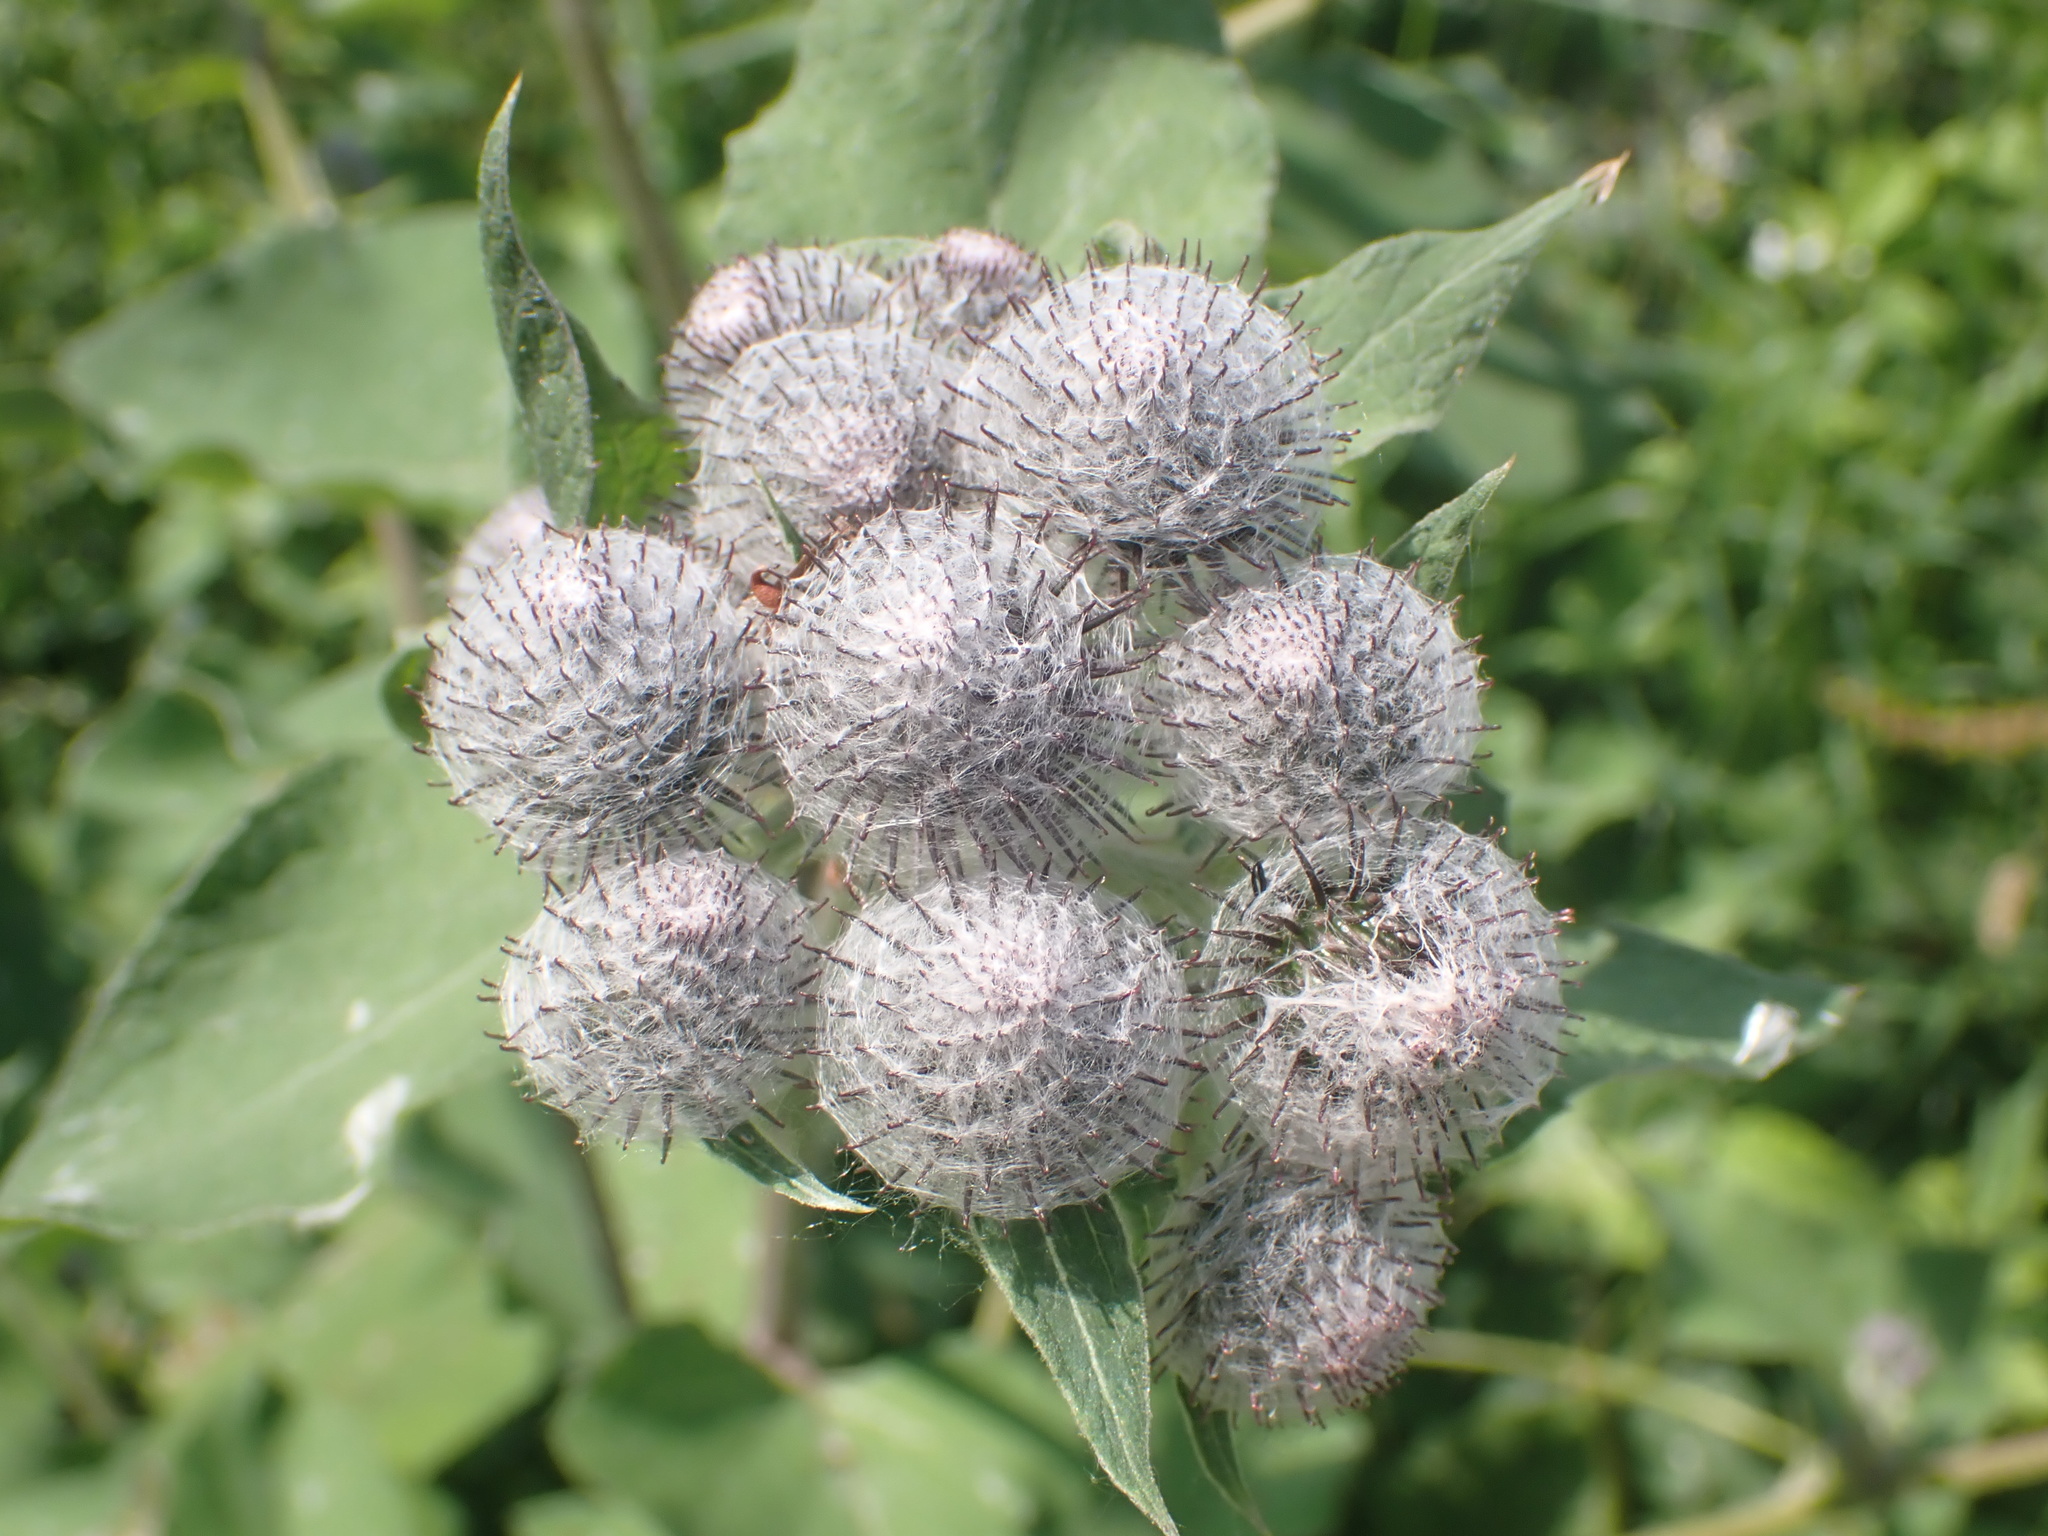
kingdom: Plantae
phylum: Tracheophyta
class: Magnoliopsida
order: Asterales
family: Asteraceae
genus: Arctium
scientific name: Arctium tomentosum
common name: Woolly burdock
